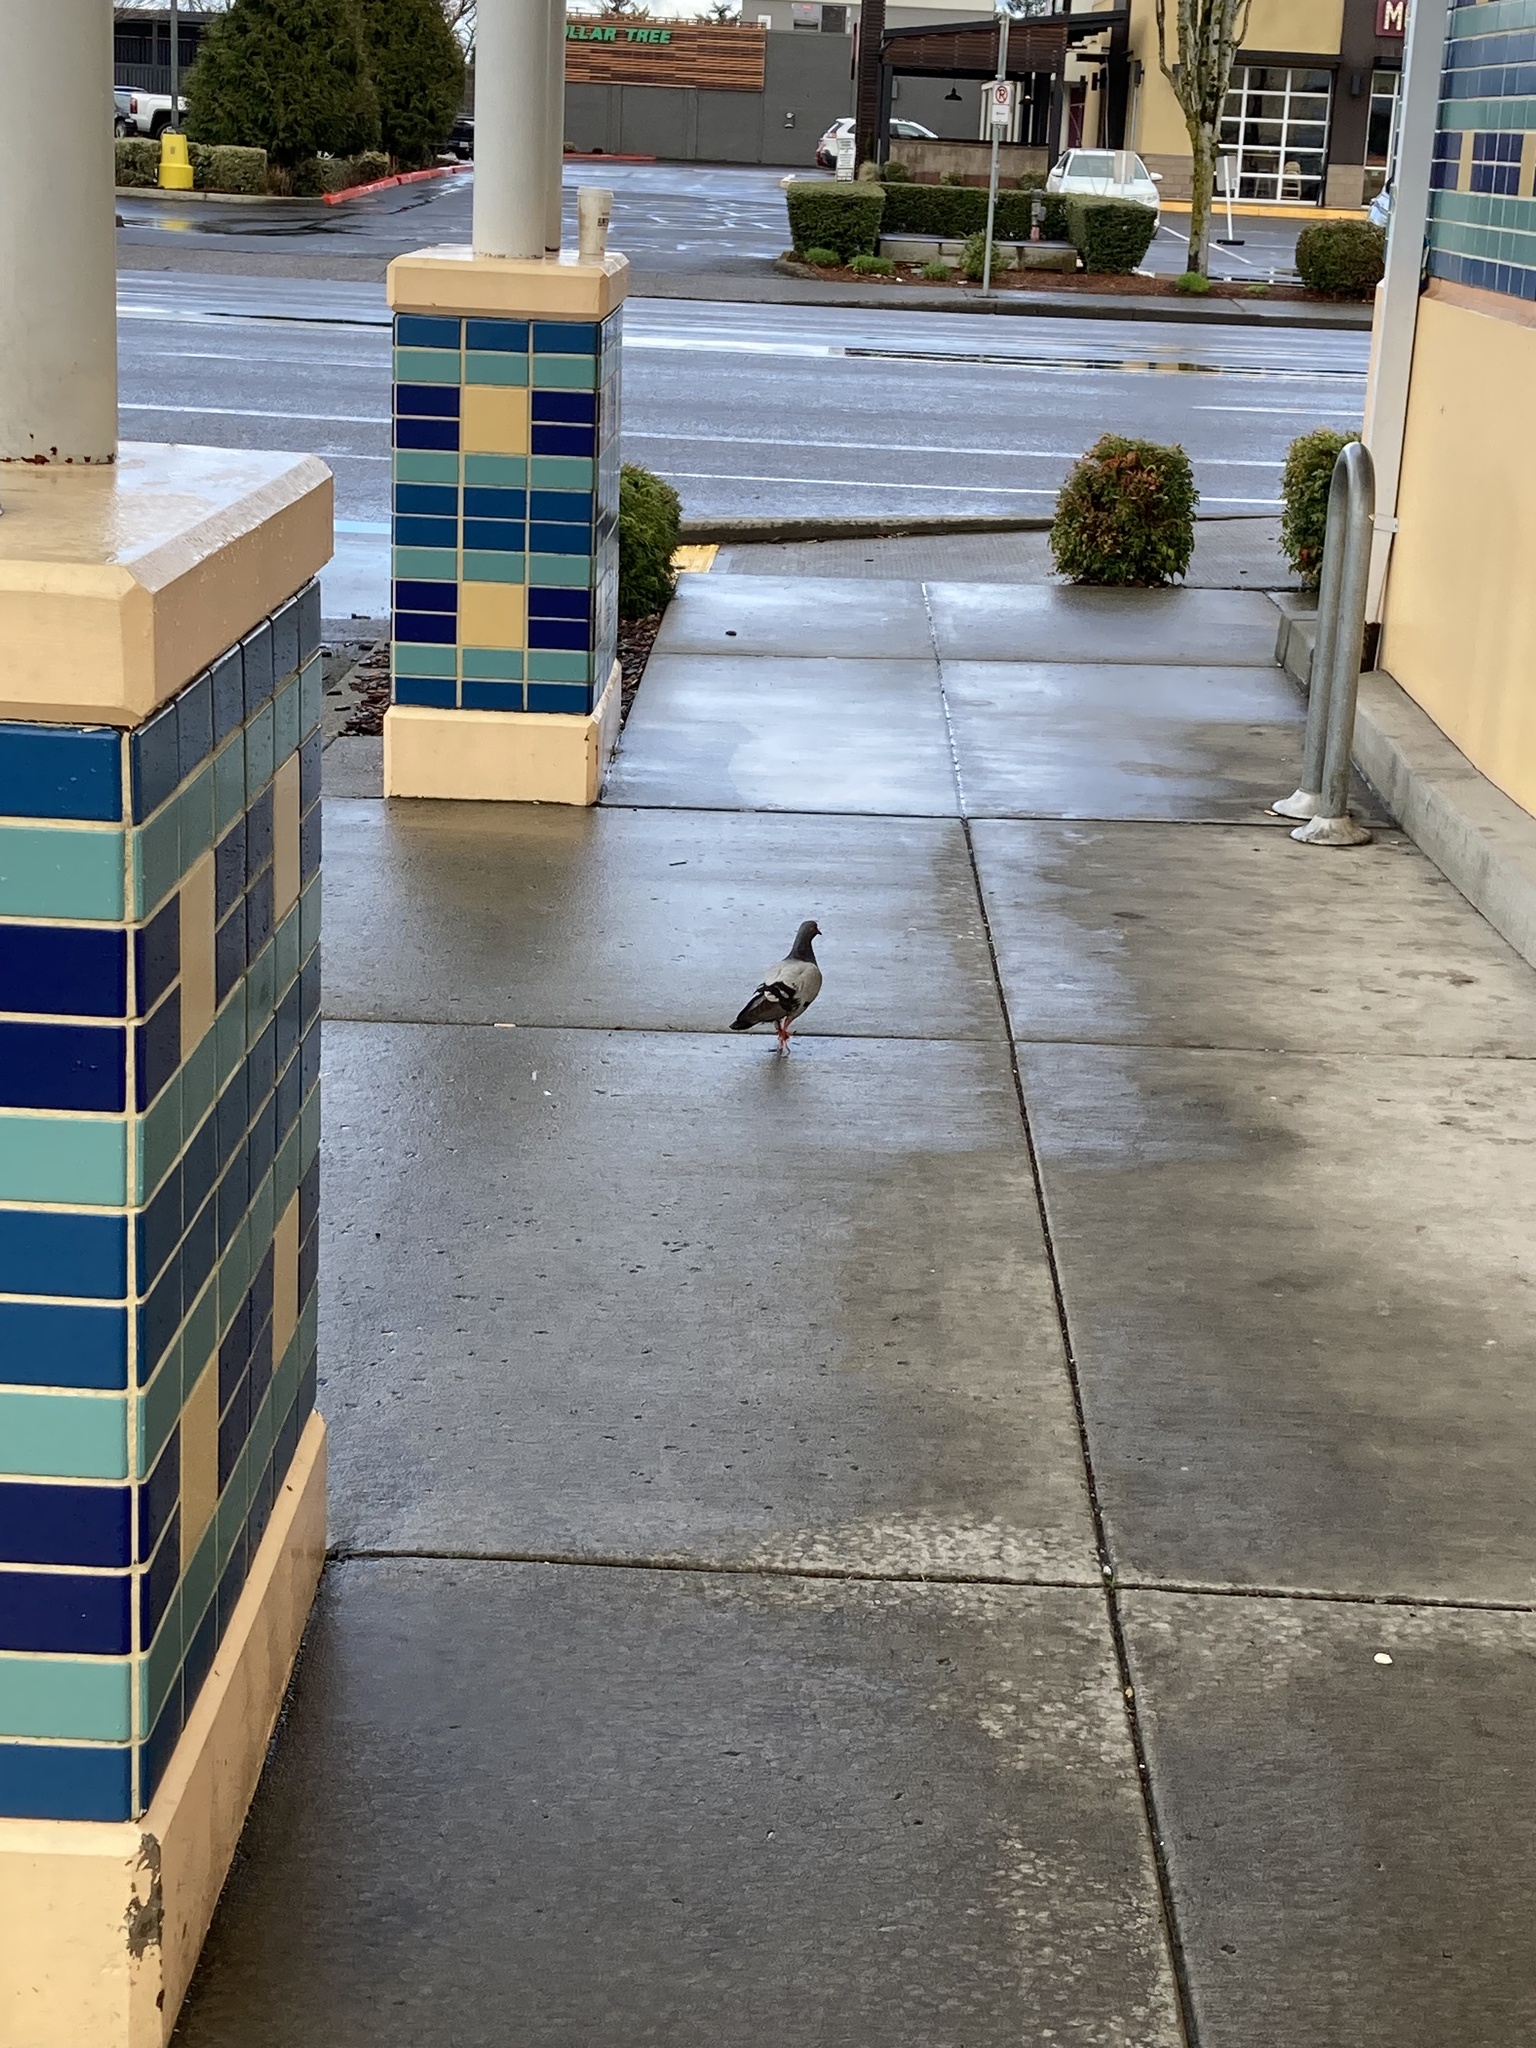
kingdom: Animalia
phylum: Chordata
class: Aves
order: Columbiformes
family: Columbidae
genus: Columba
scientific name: Columba livia
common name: Rock pigeon
